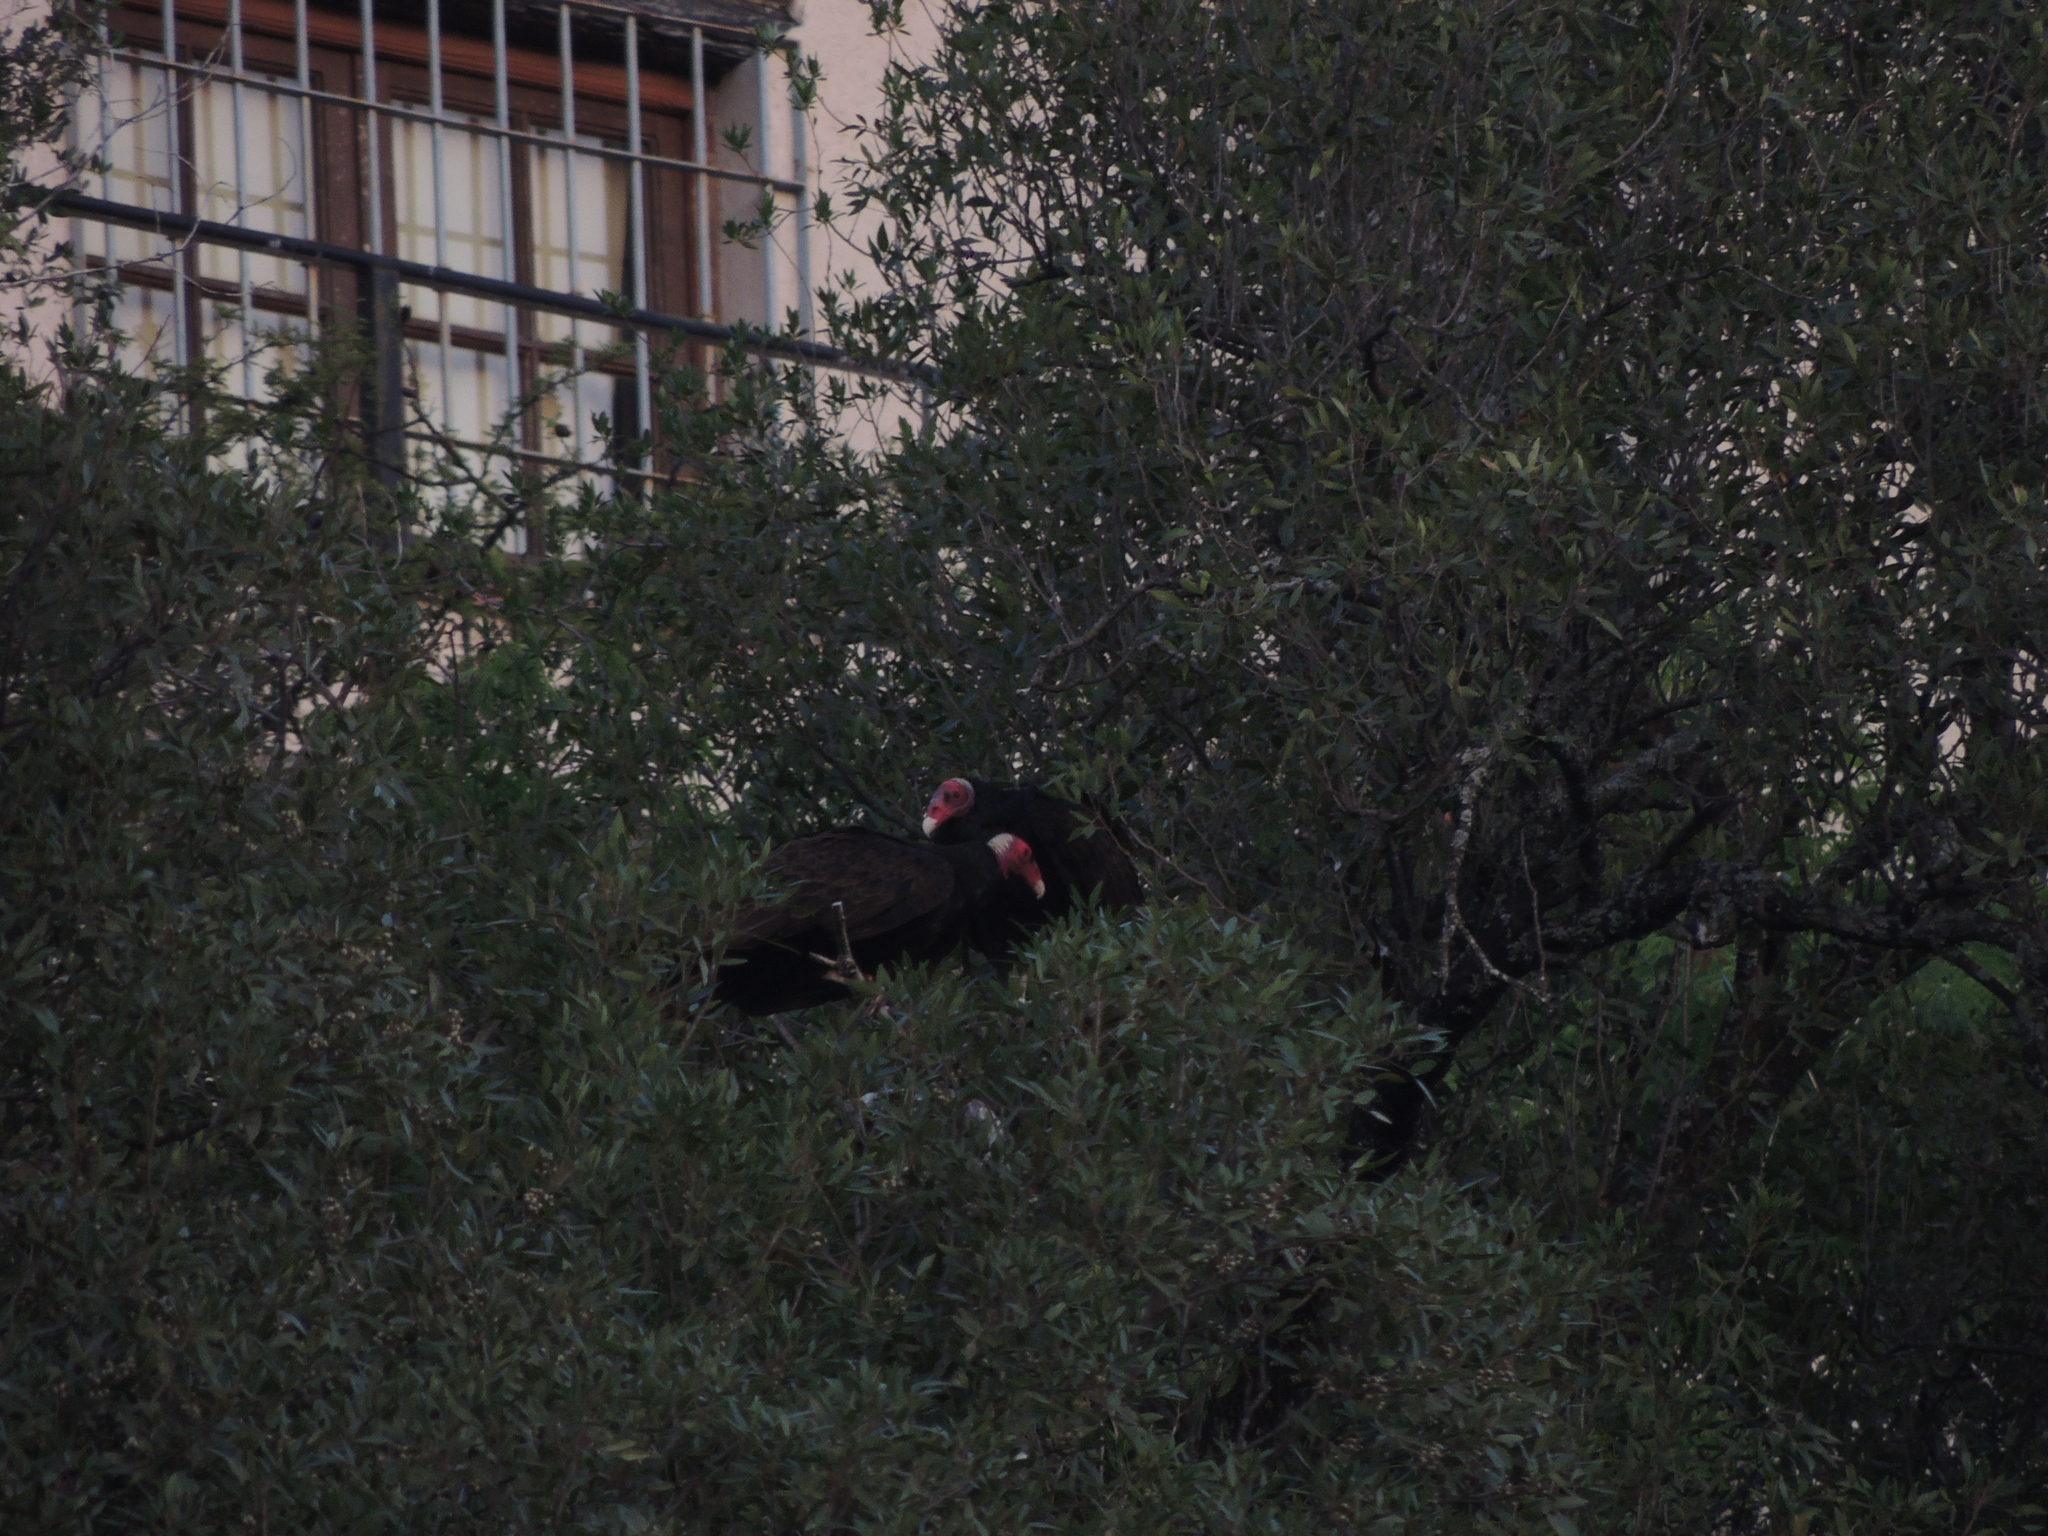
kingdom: Animalia
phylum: Chordata
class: Aves
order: Accipitriformes
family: Cathartidae
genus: Cathartes
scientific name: Cathartes aura
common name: Turkey vulture
